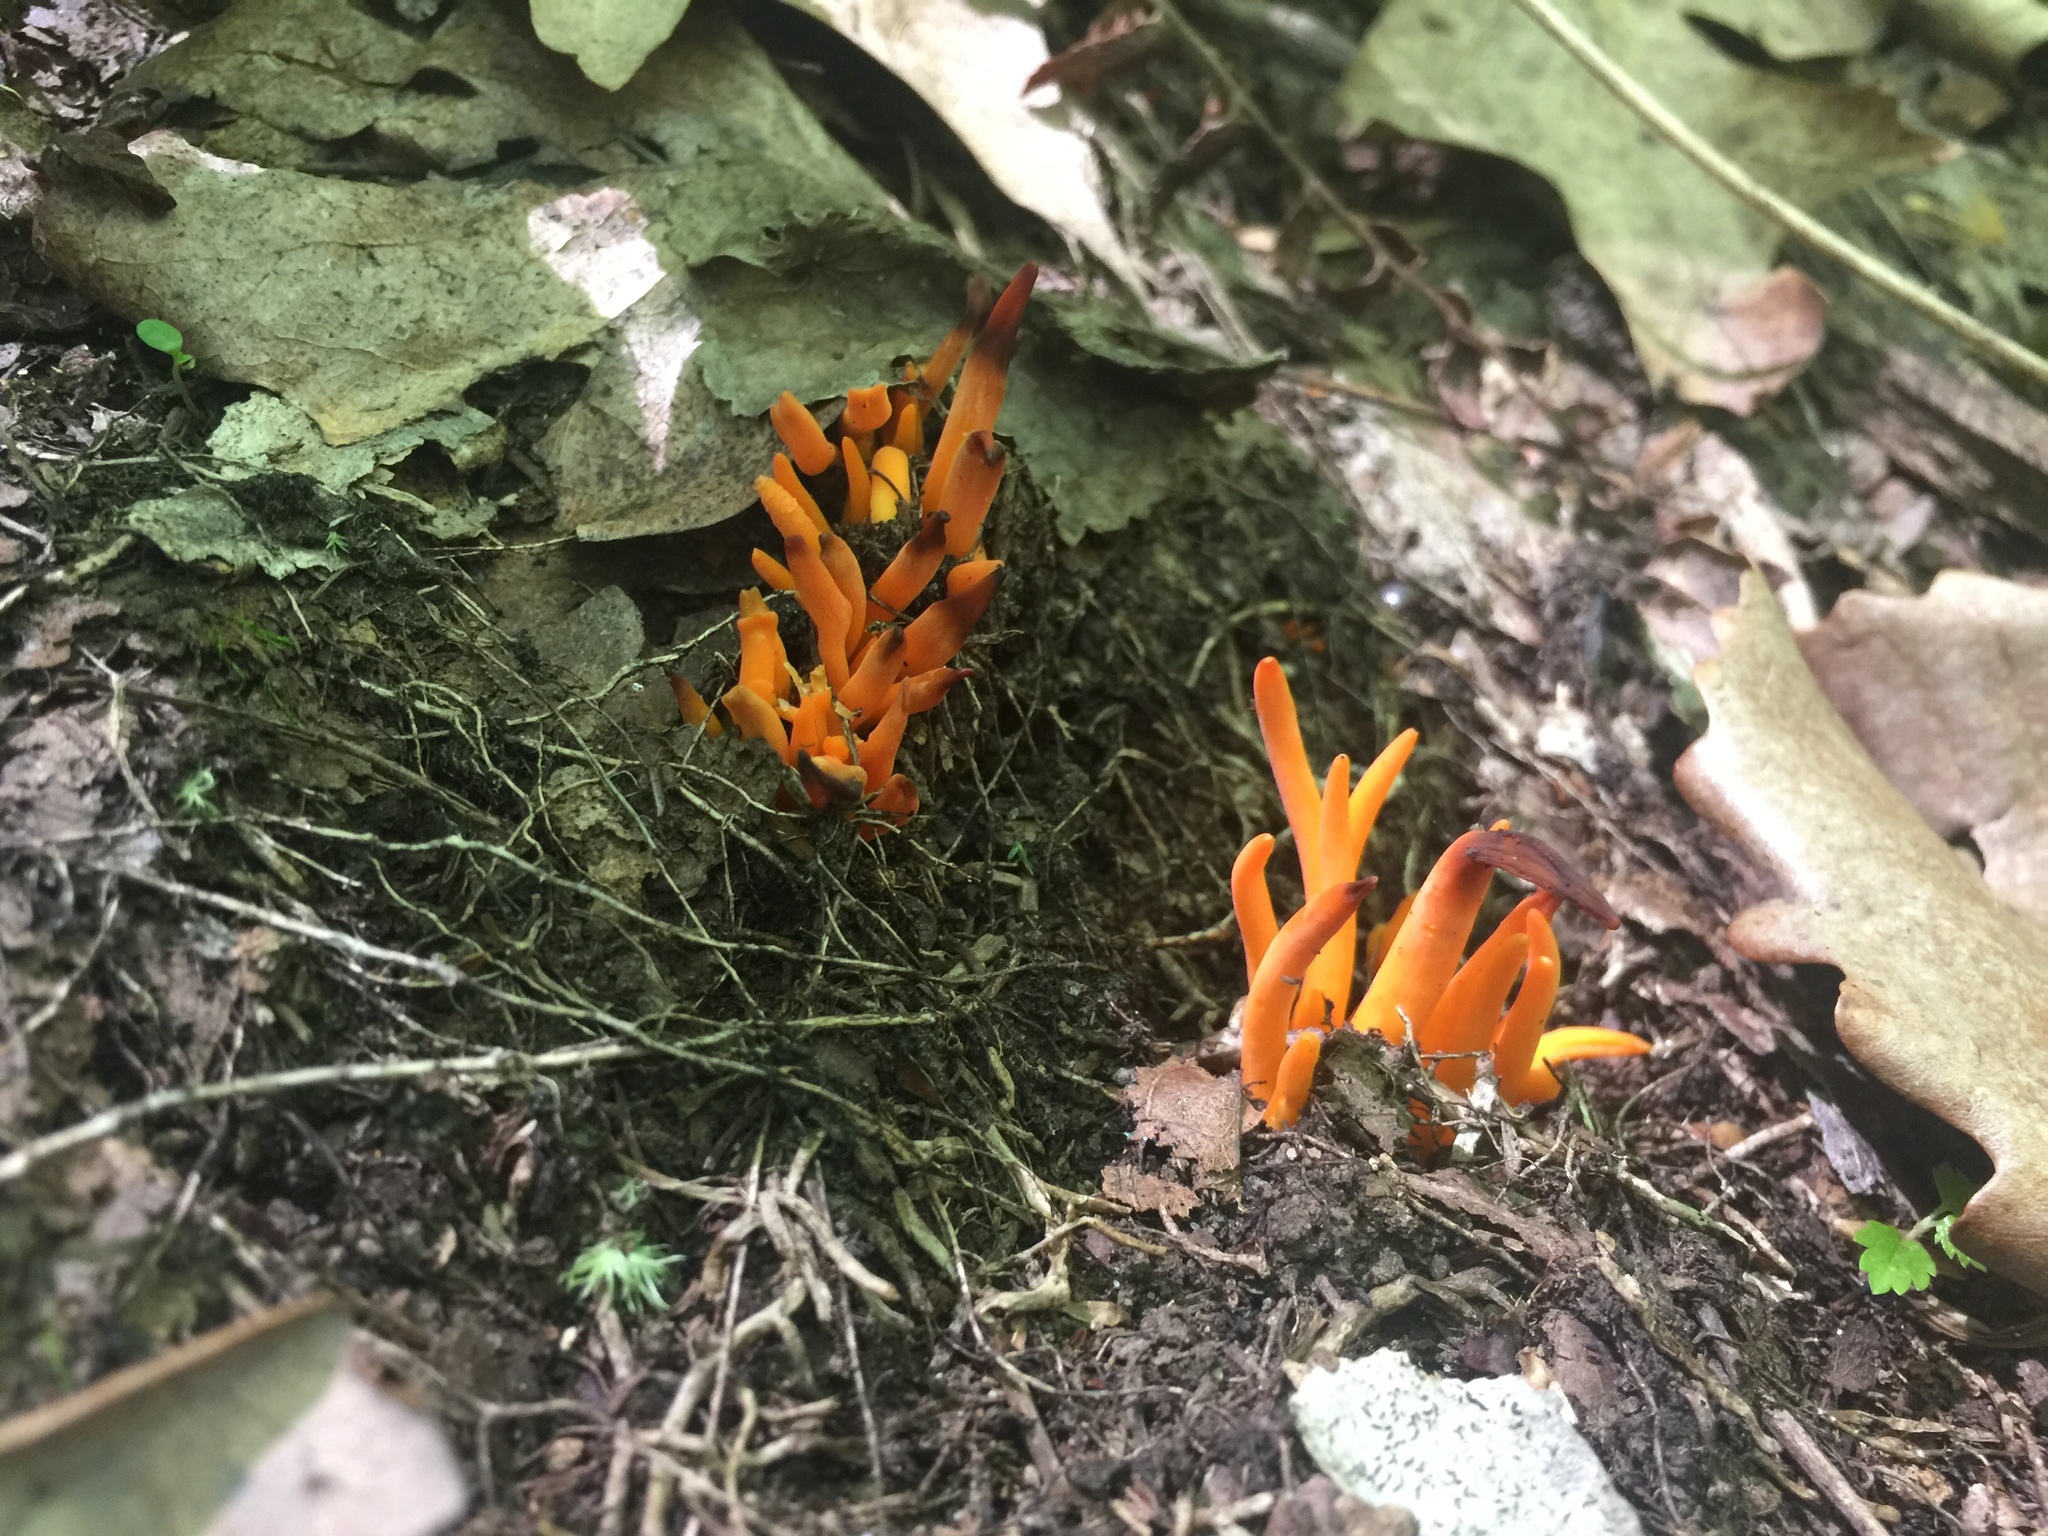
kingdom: Fungi
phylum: Basidiomycota
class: Agaricomycetes
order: Agaricales
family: Clavariaceae
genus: Clavulinopsis
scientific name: Clavulinopsis aurantiocinnabarina
